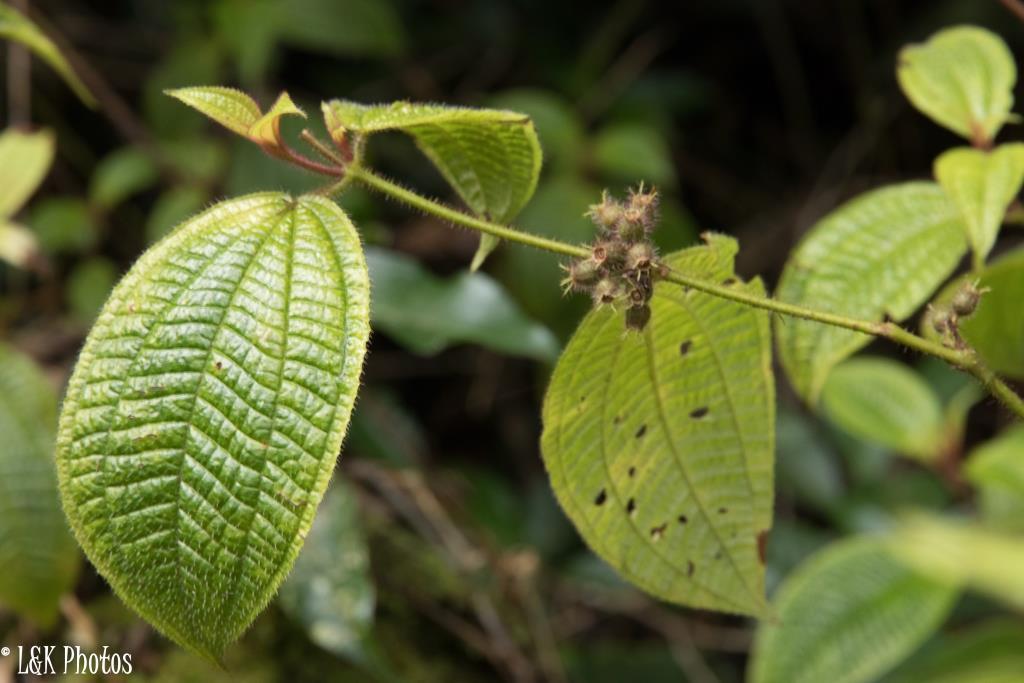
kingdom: Plantae
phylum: Tracheophyta
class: Magnoliopsida
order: Myrtales
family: Melastomataceae
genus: Miconia
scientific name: Miconia crenata
